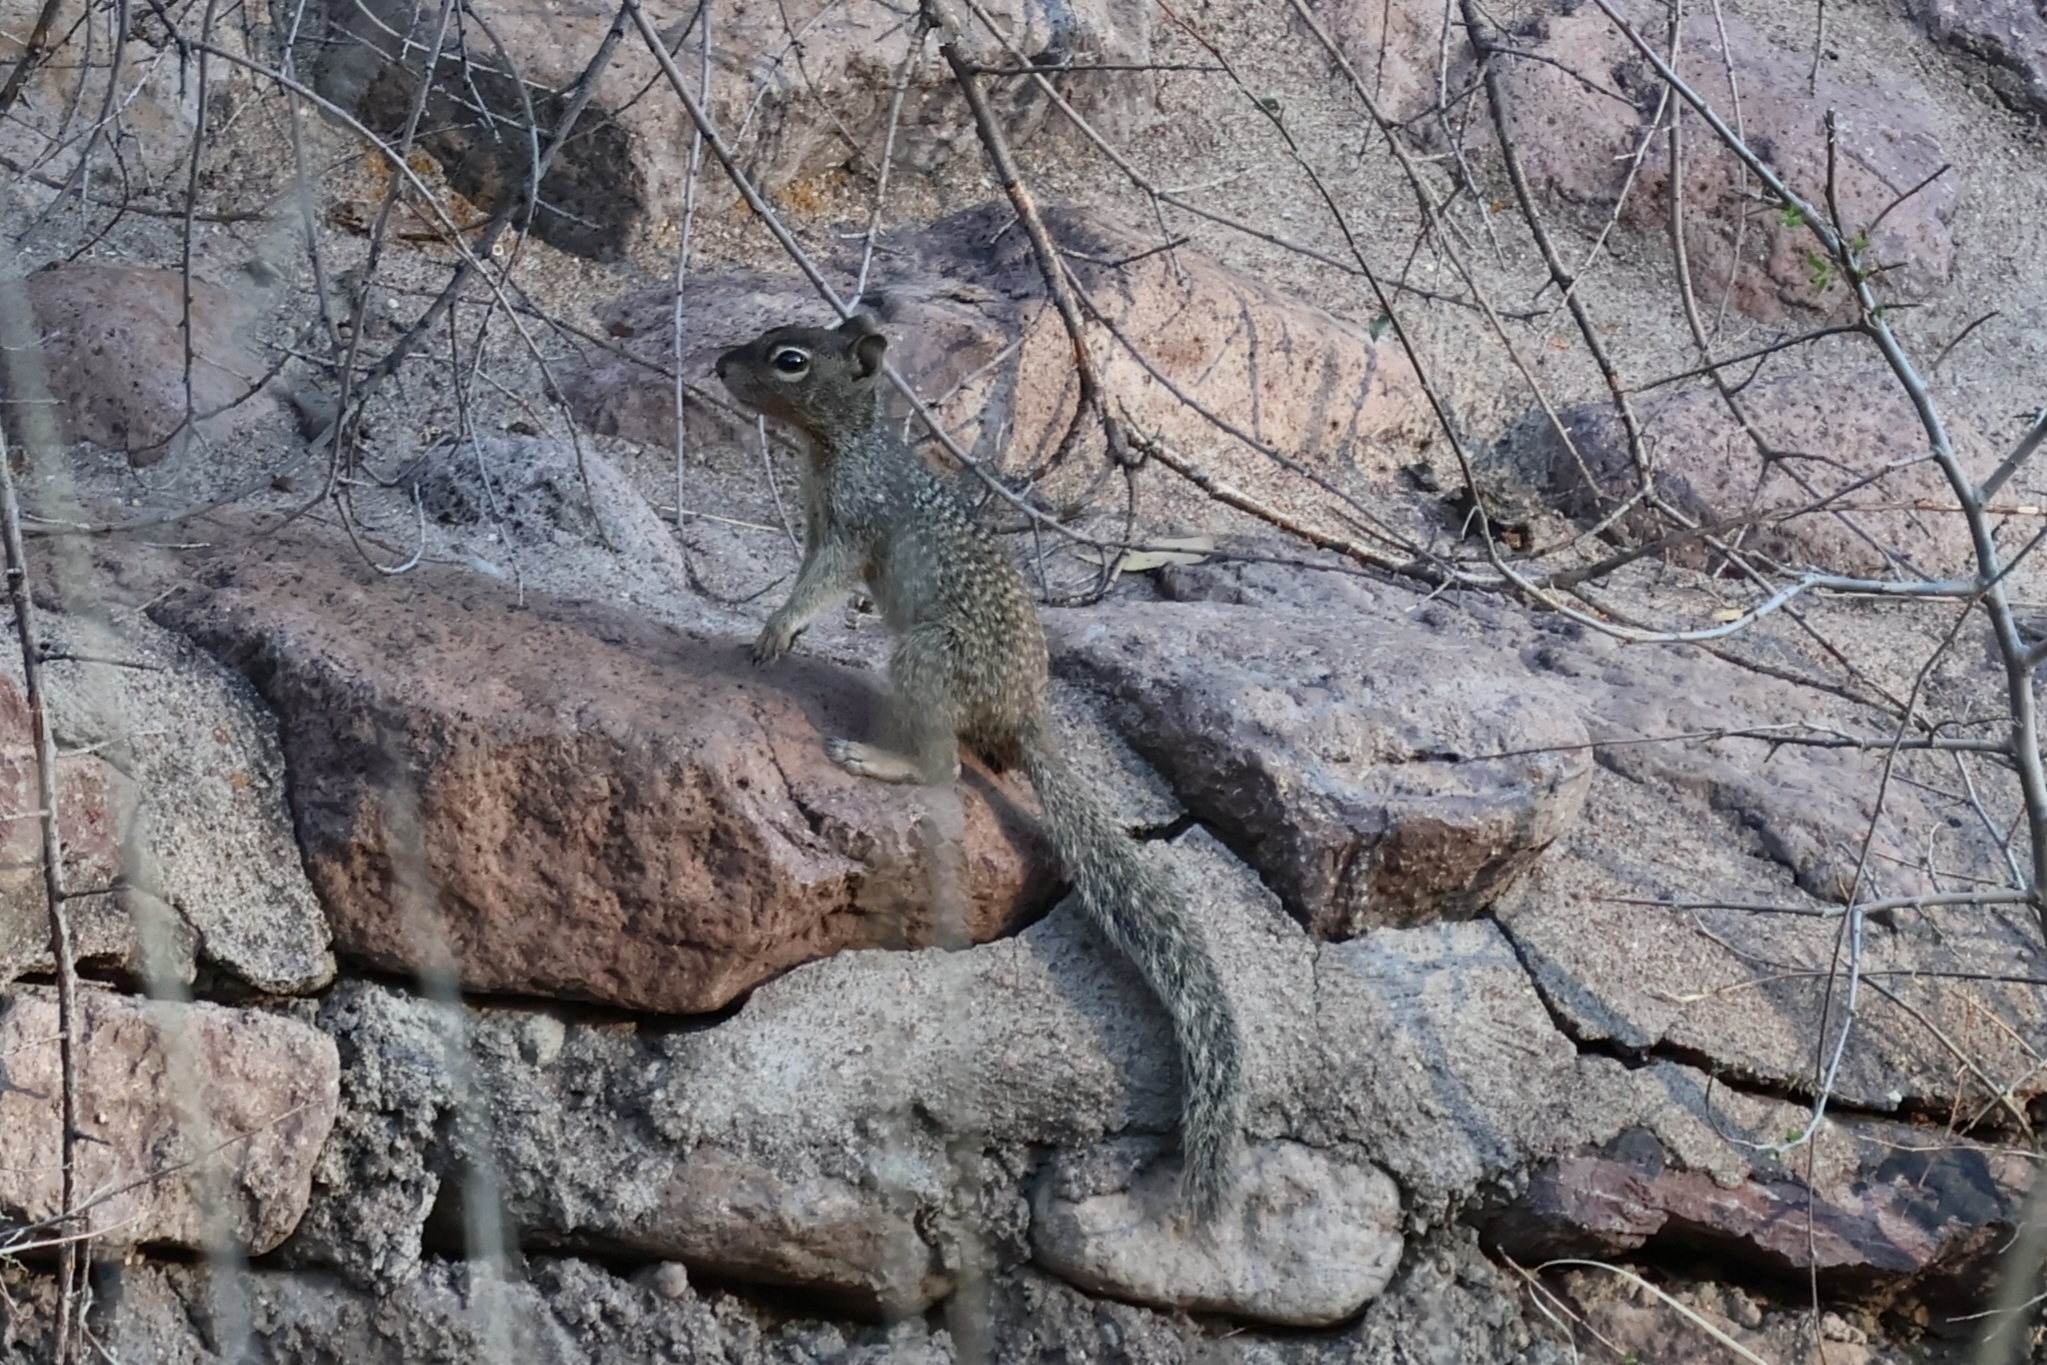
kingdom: Animalia
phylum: Chordata
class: Mammalia
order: Rodentia
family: Sciuridae
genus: Otospermophilus
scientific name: Otospermophilus variegatus
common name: Rock squirrel
